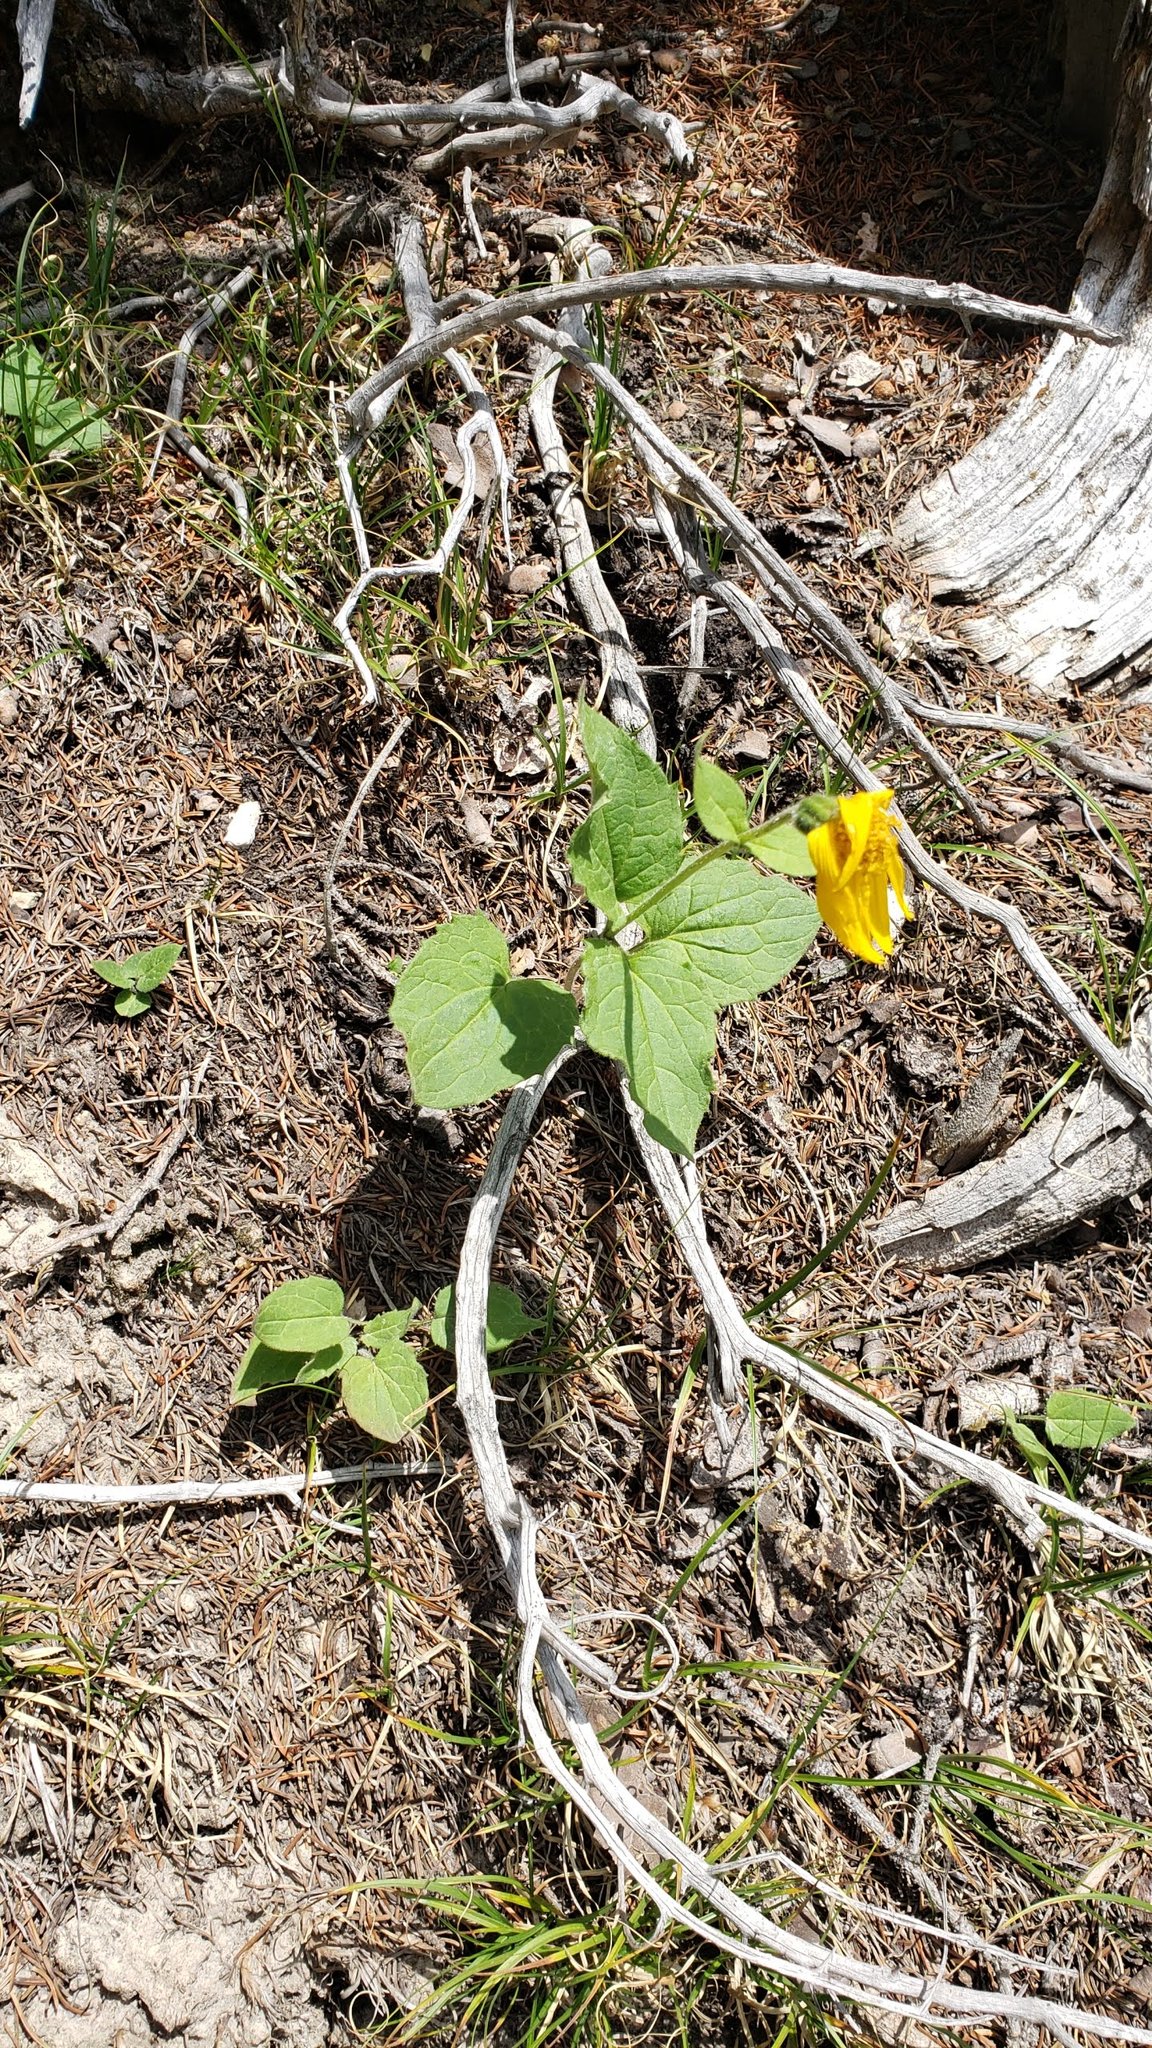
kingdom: Plantae
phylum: Tracheophyta
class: Magnoliopsida
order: Asterales
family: Asteraceae
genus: Arnica
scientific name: Arnica cordifolia
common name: Heart-leaf arnica
